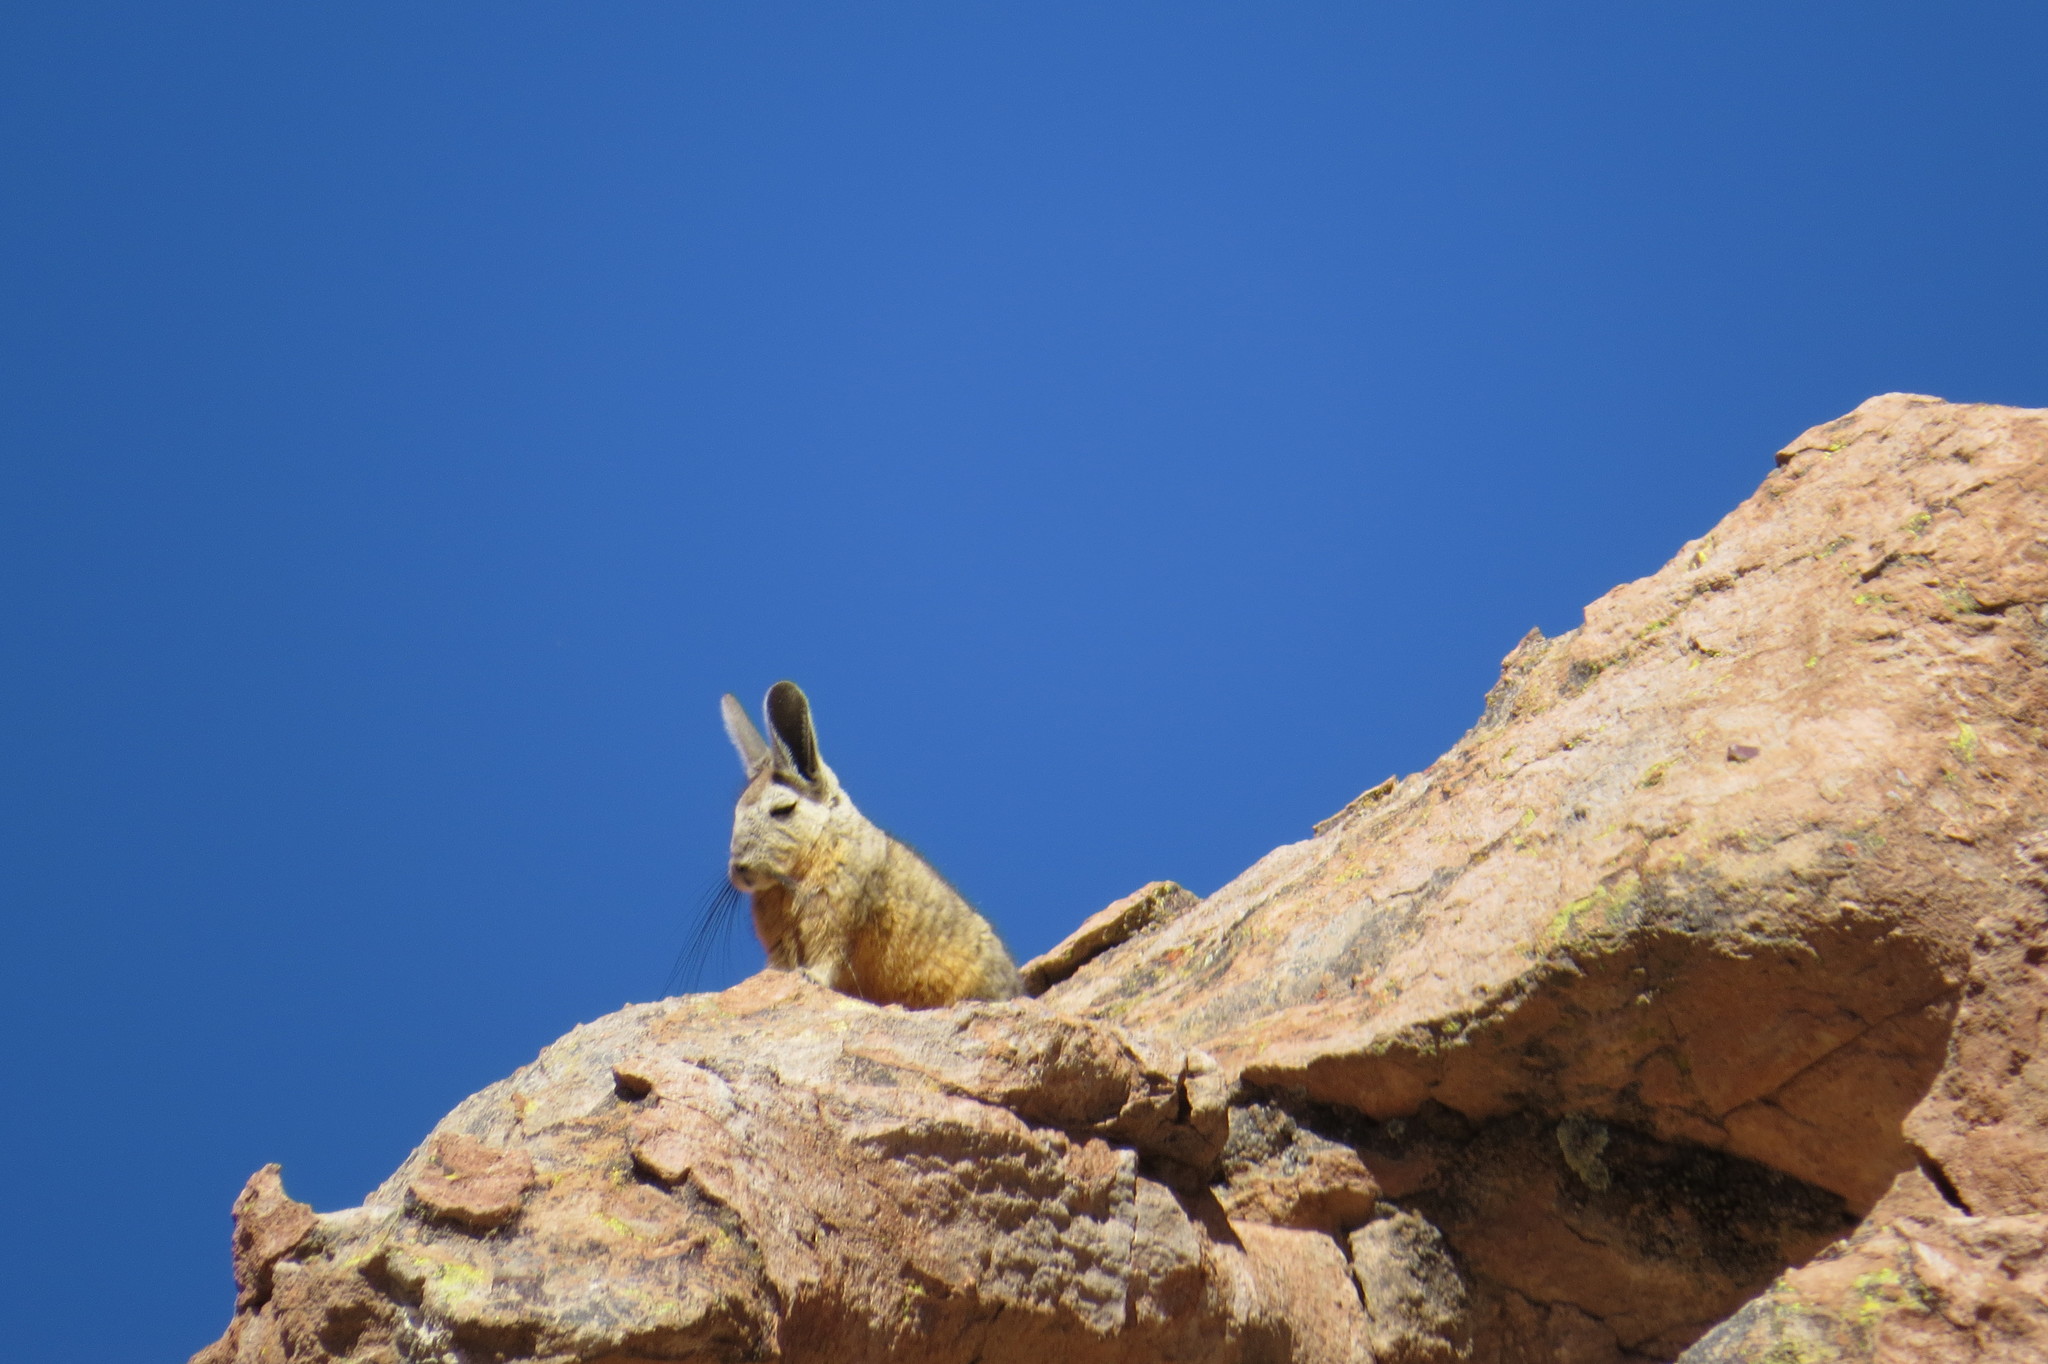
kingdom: Animalia
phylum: Chordata
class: Mammalia
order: Rodentia
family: Chinchillidae
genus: Lagidium
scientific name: Lagidium viscacia
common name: Southern viscacha
